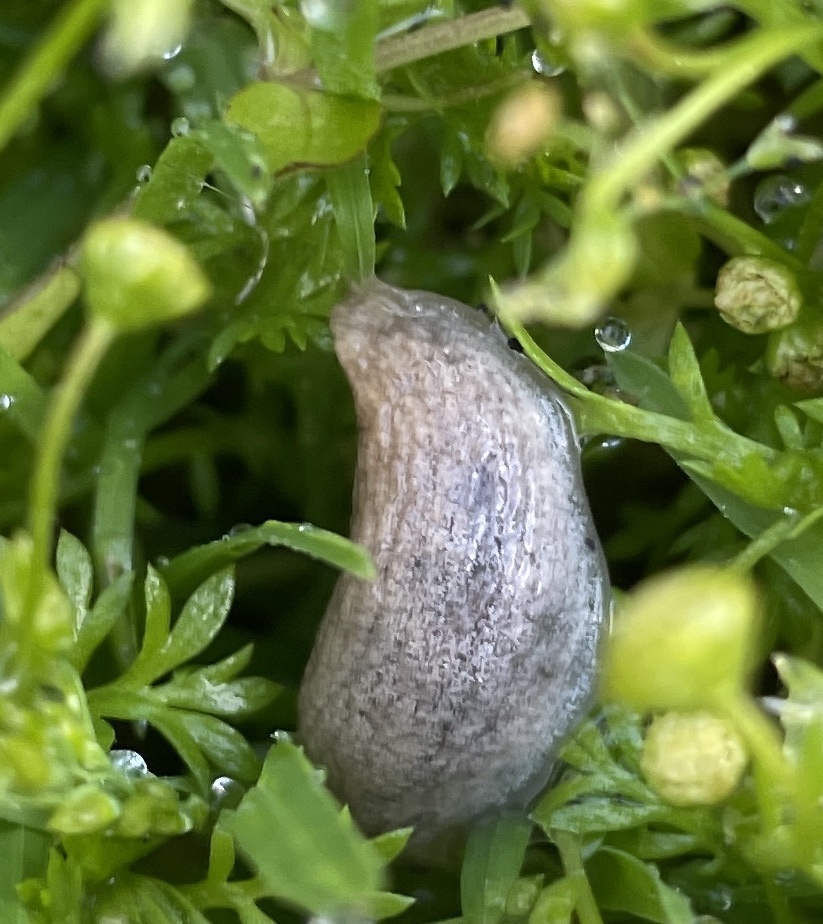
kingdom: Animalia
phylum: Mollusca
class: Gastropoda
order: Stylommatophora
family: Agriolimacidae
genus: Deroceras
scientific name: Deroceras reticulatum
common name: Gray field slug
